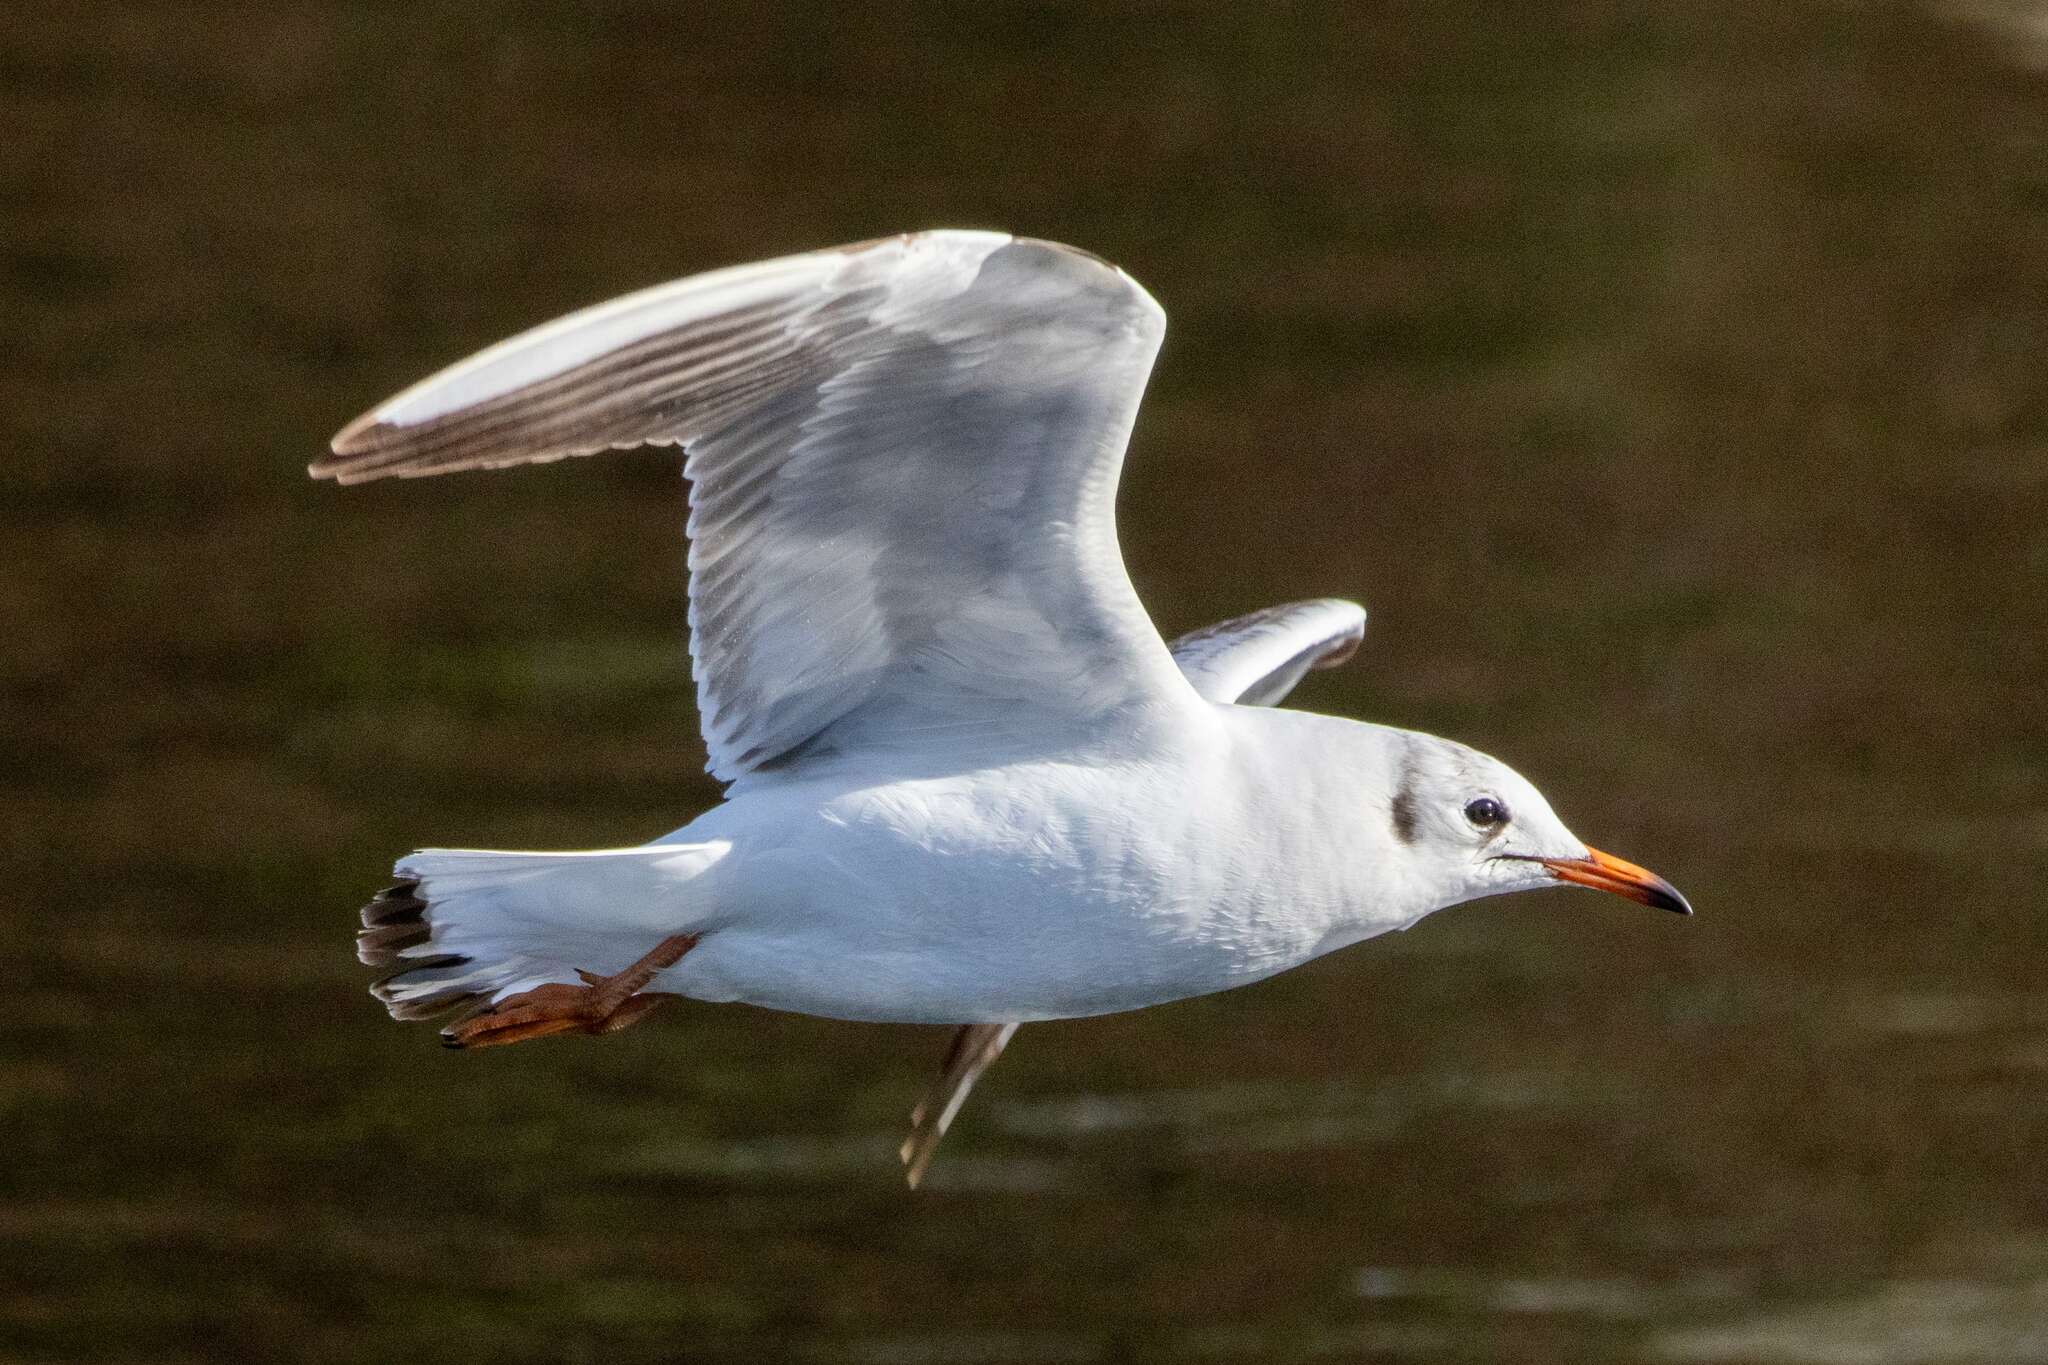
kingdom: Animalia
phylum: Chordata
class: Aves
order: Charadriiformes
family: Laridae
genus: Chroicocephalus
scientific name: Chroicocephalus ridibundus
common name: Black-headed gull
